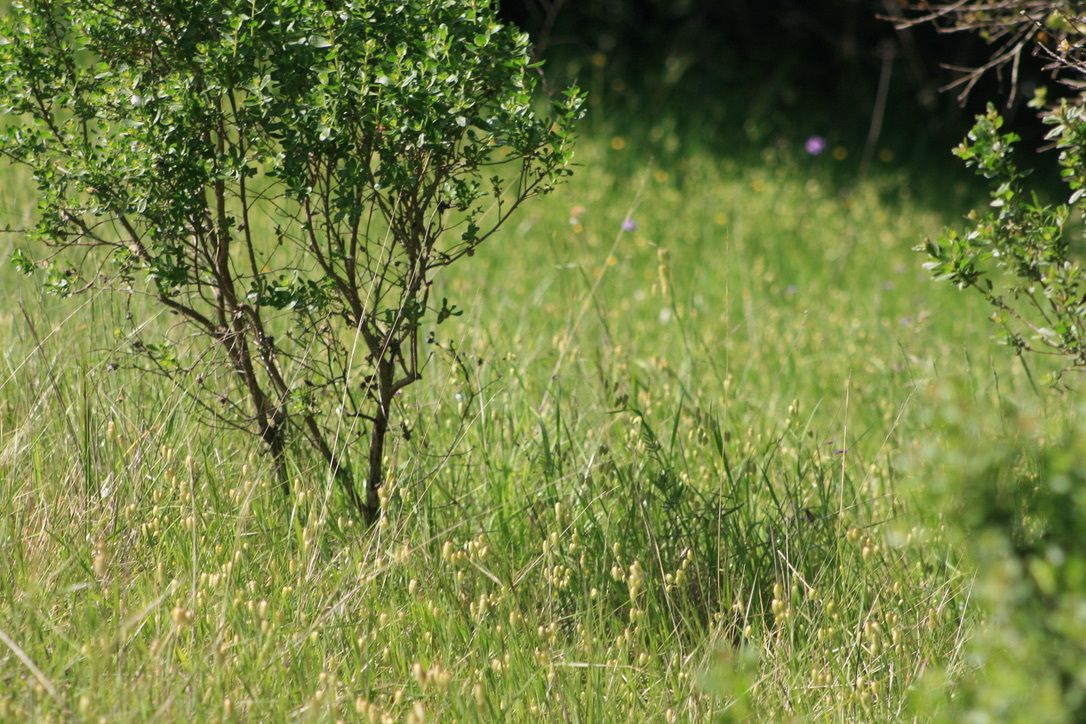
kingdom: Plantae
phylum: Tracheophyta
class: Magnoliopsida
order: Asterales
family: Asteraceae
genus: Baccharis
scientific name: Baccharis pilularis
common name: Coyotebrush
